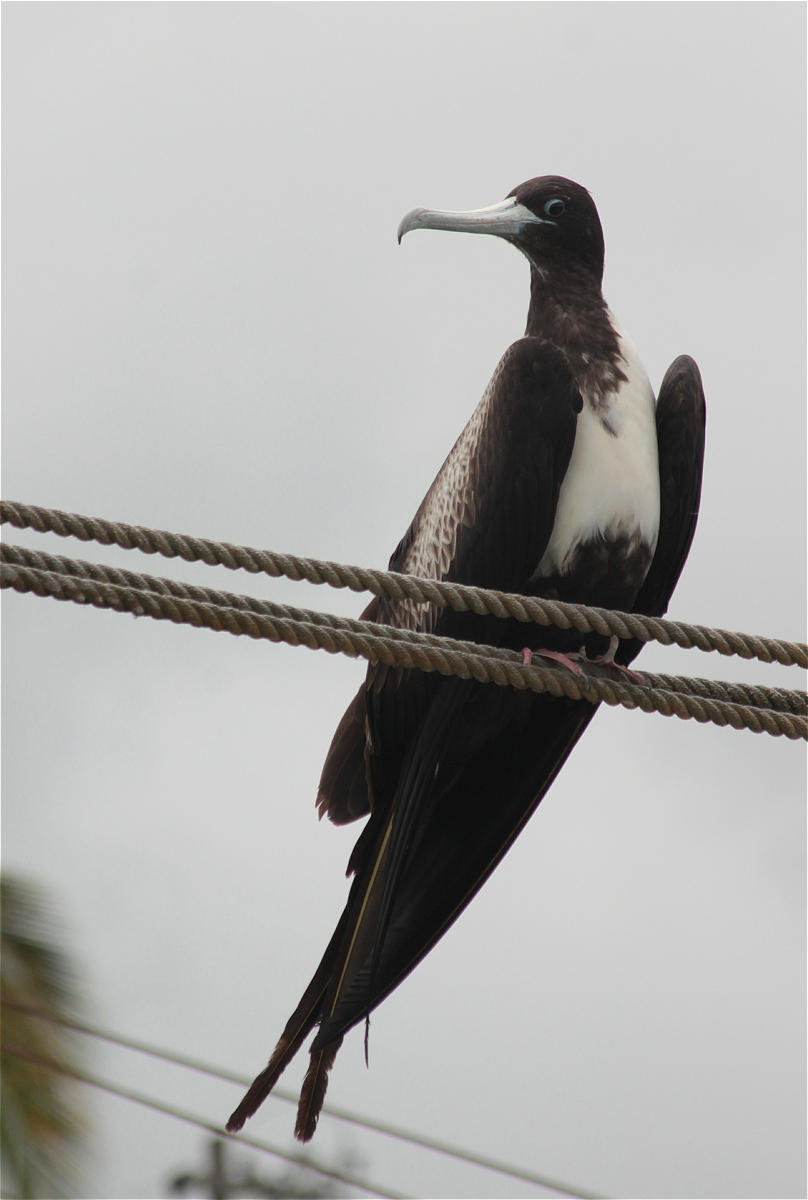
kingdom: Animalia
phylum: Chordata
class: Aves
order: Suliformes
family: Fregatidae
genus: Fregata
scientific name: Fregata magnificens
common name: Magnificent frigatebird
